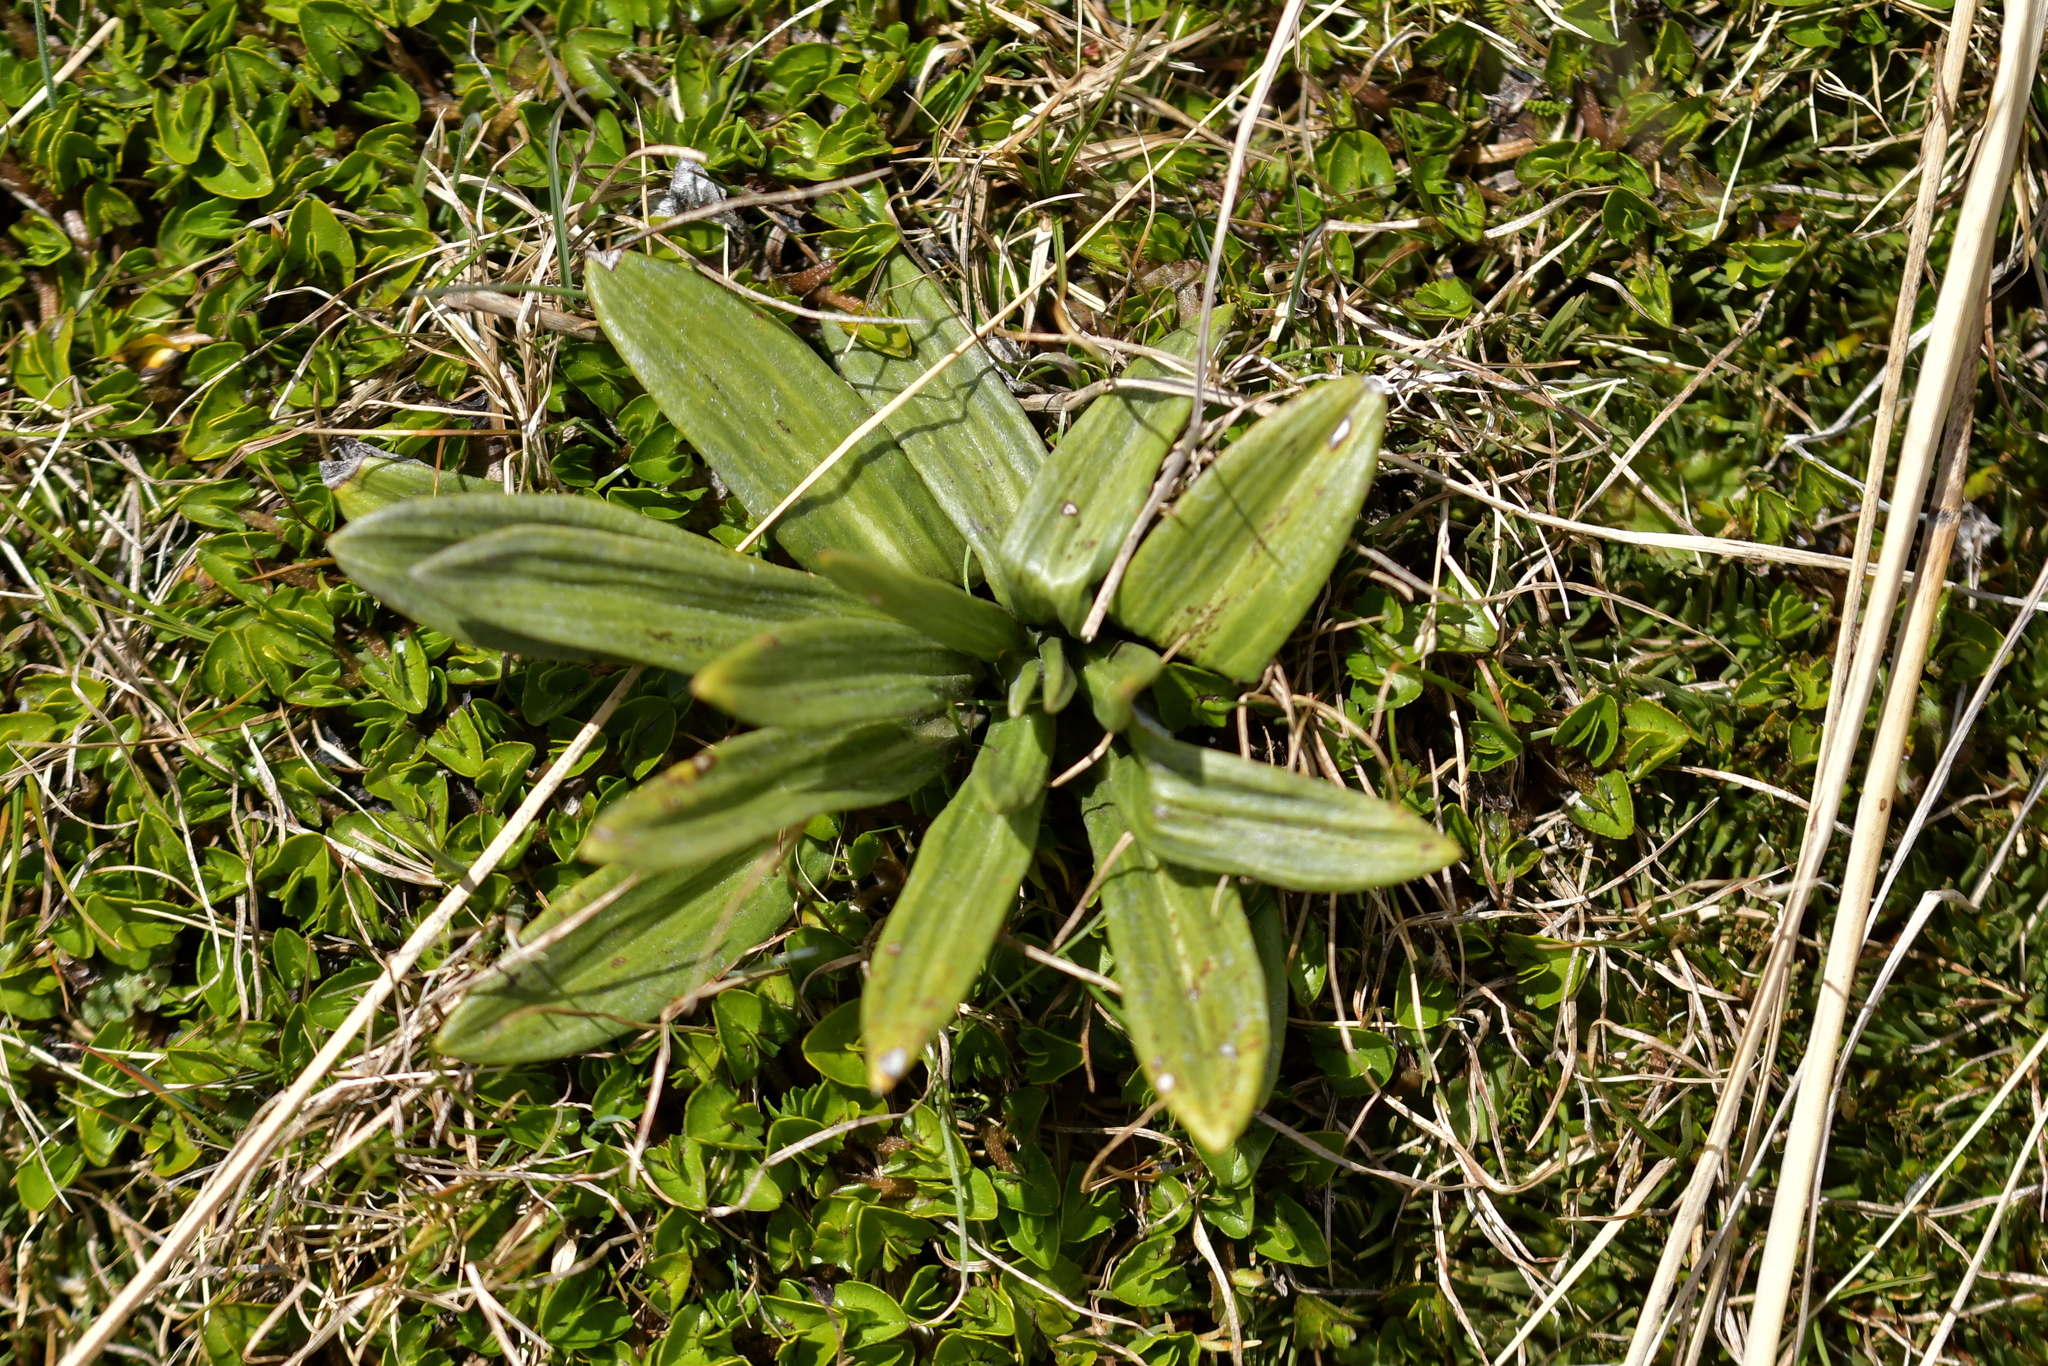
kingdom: Plantae
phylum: Tracheophyta
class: Magnoliopsida
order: Asterales
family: Asteraceae
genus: Celmisia
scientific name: Celmisia haastii
